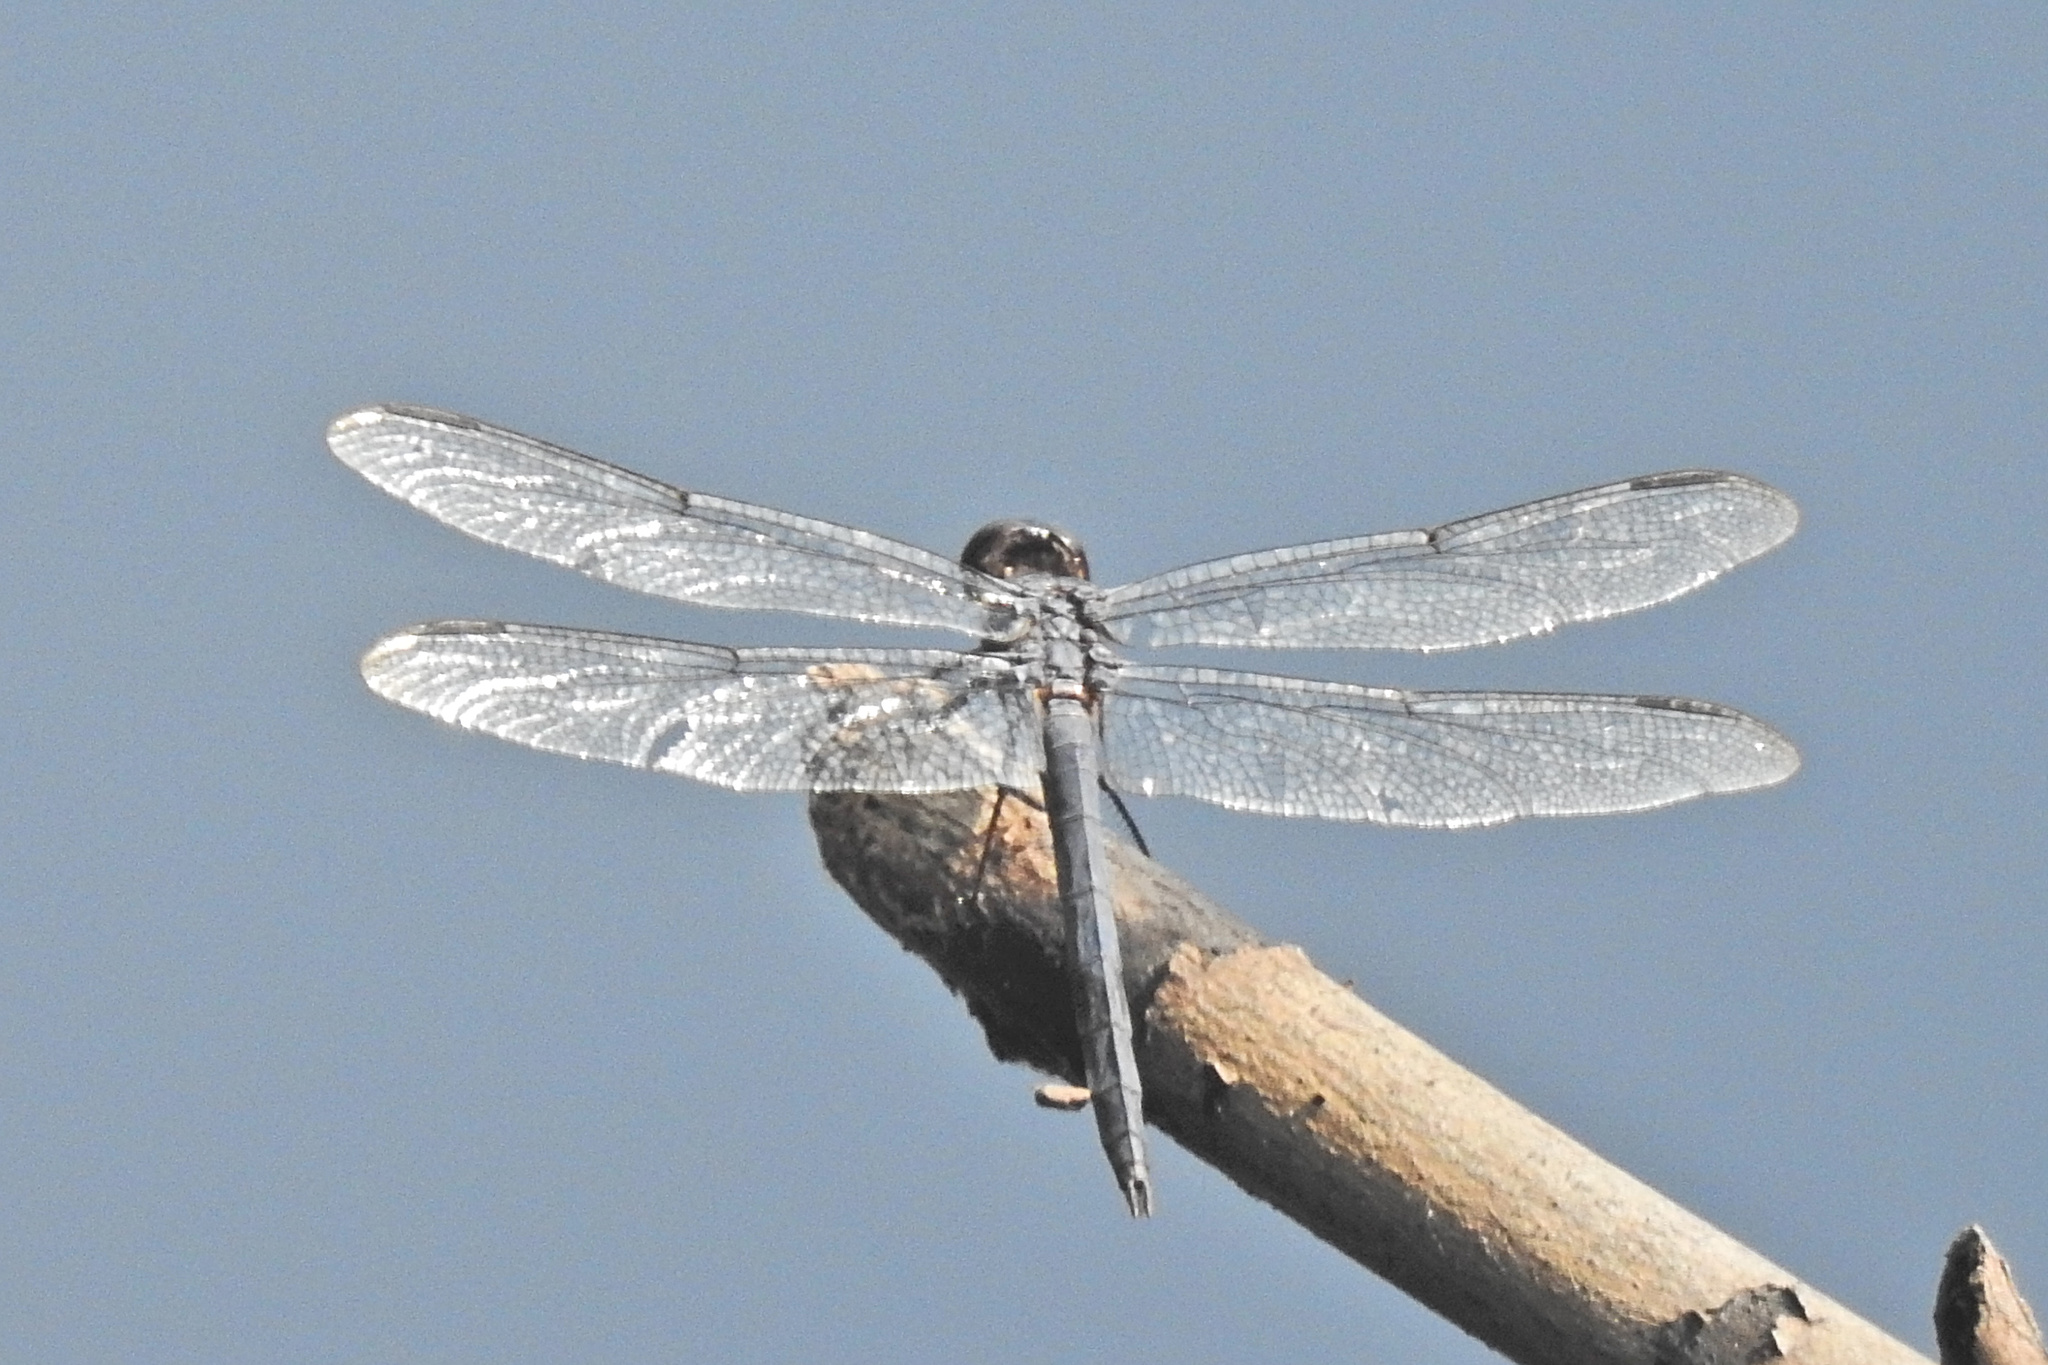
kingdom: Animalia
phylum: Arthropoda
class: Insecta
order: Odonata
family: Libellulidae
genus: Libellula
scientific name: Libellula incesta
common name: Slaty skimmer
